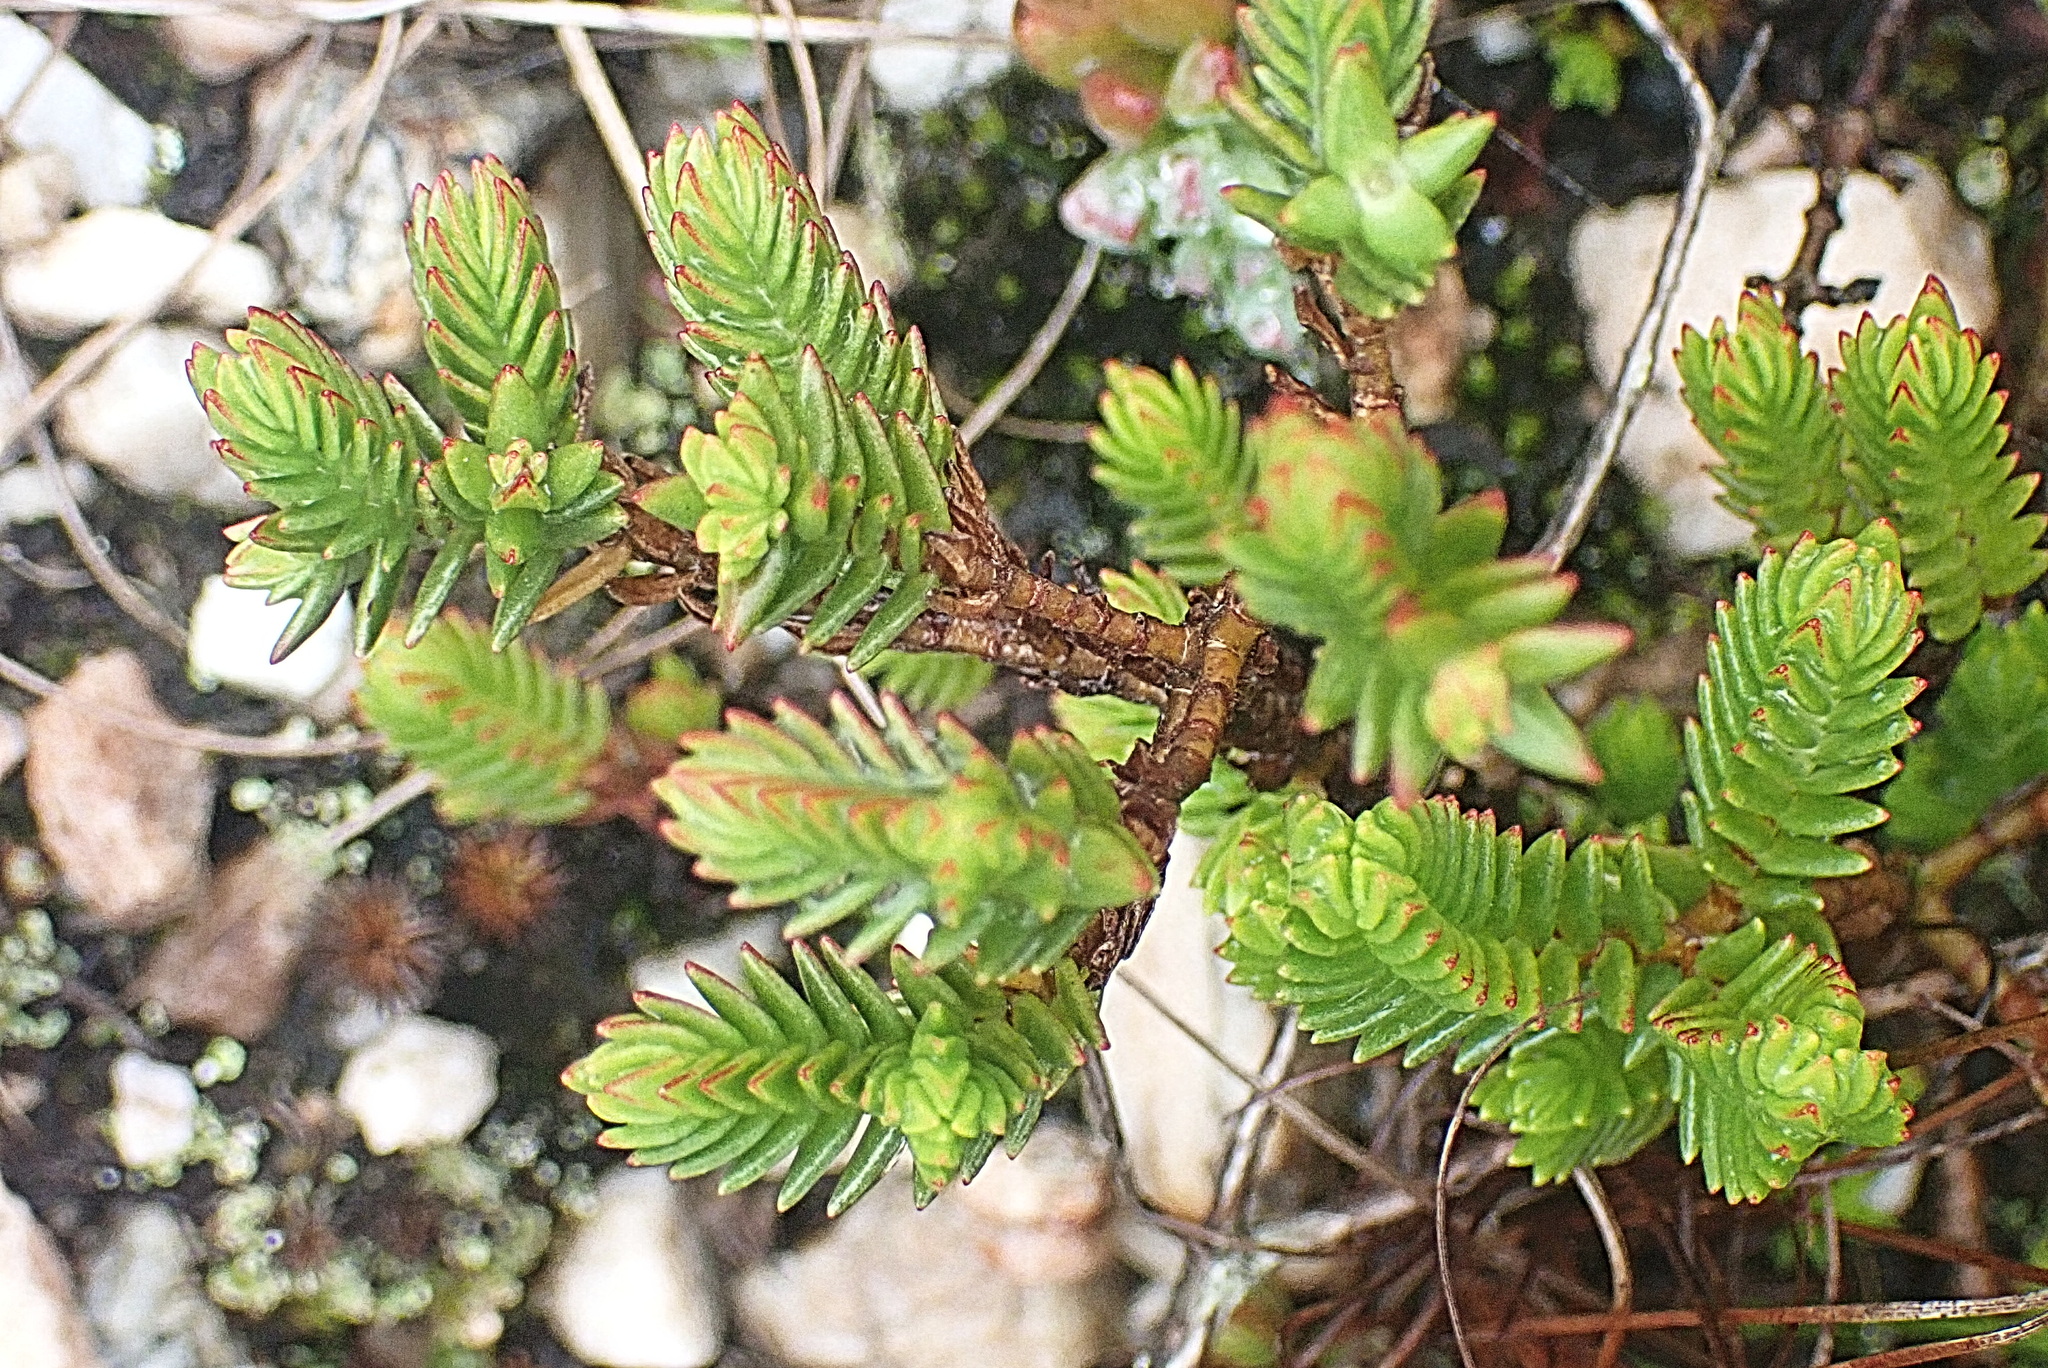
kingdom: Plantae
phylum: Tracheophyta
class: Magnoliopsida
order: Saxifragales
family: Crassulaceae
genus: Crassula
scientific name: Crassula ericoides
